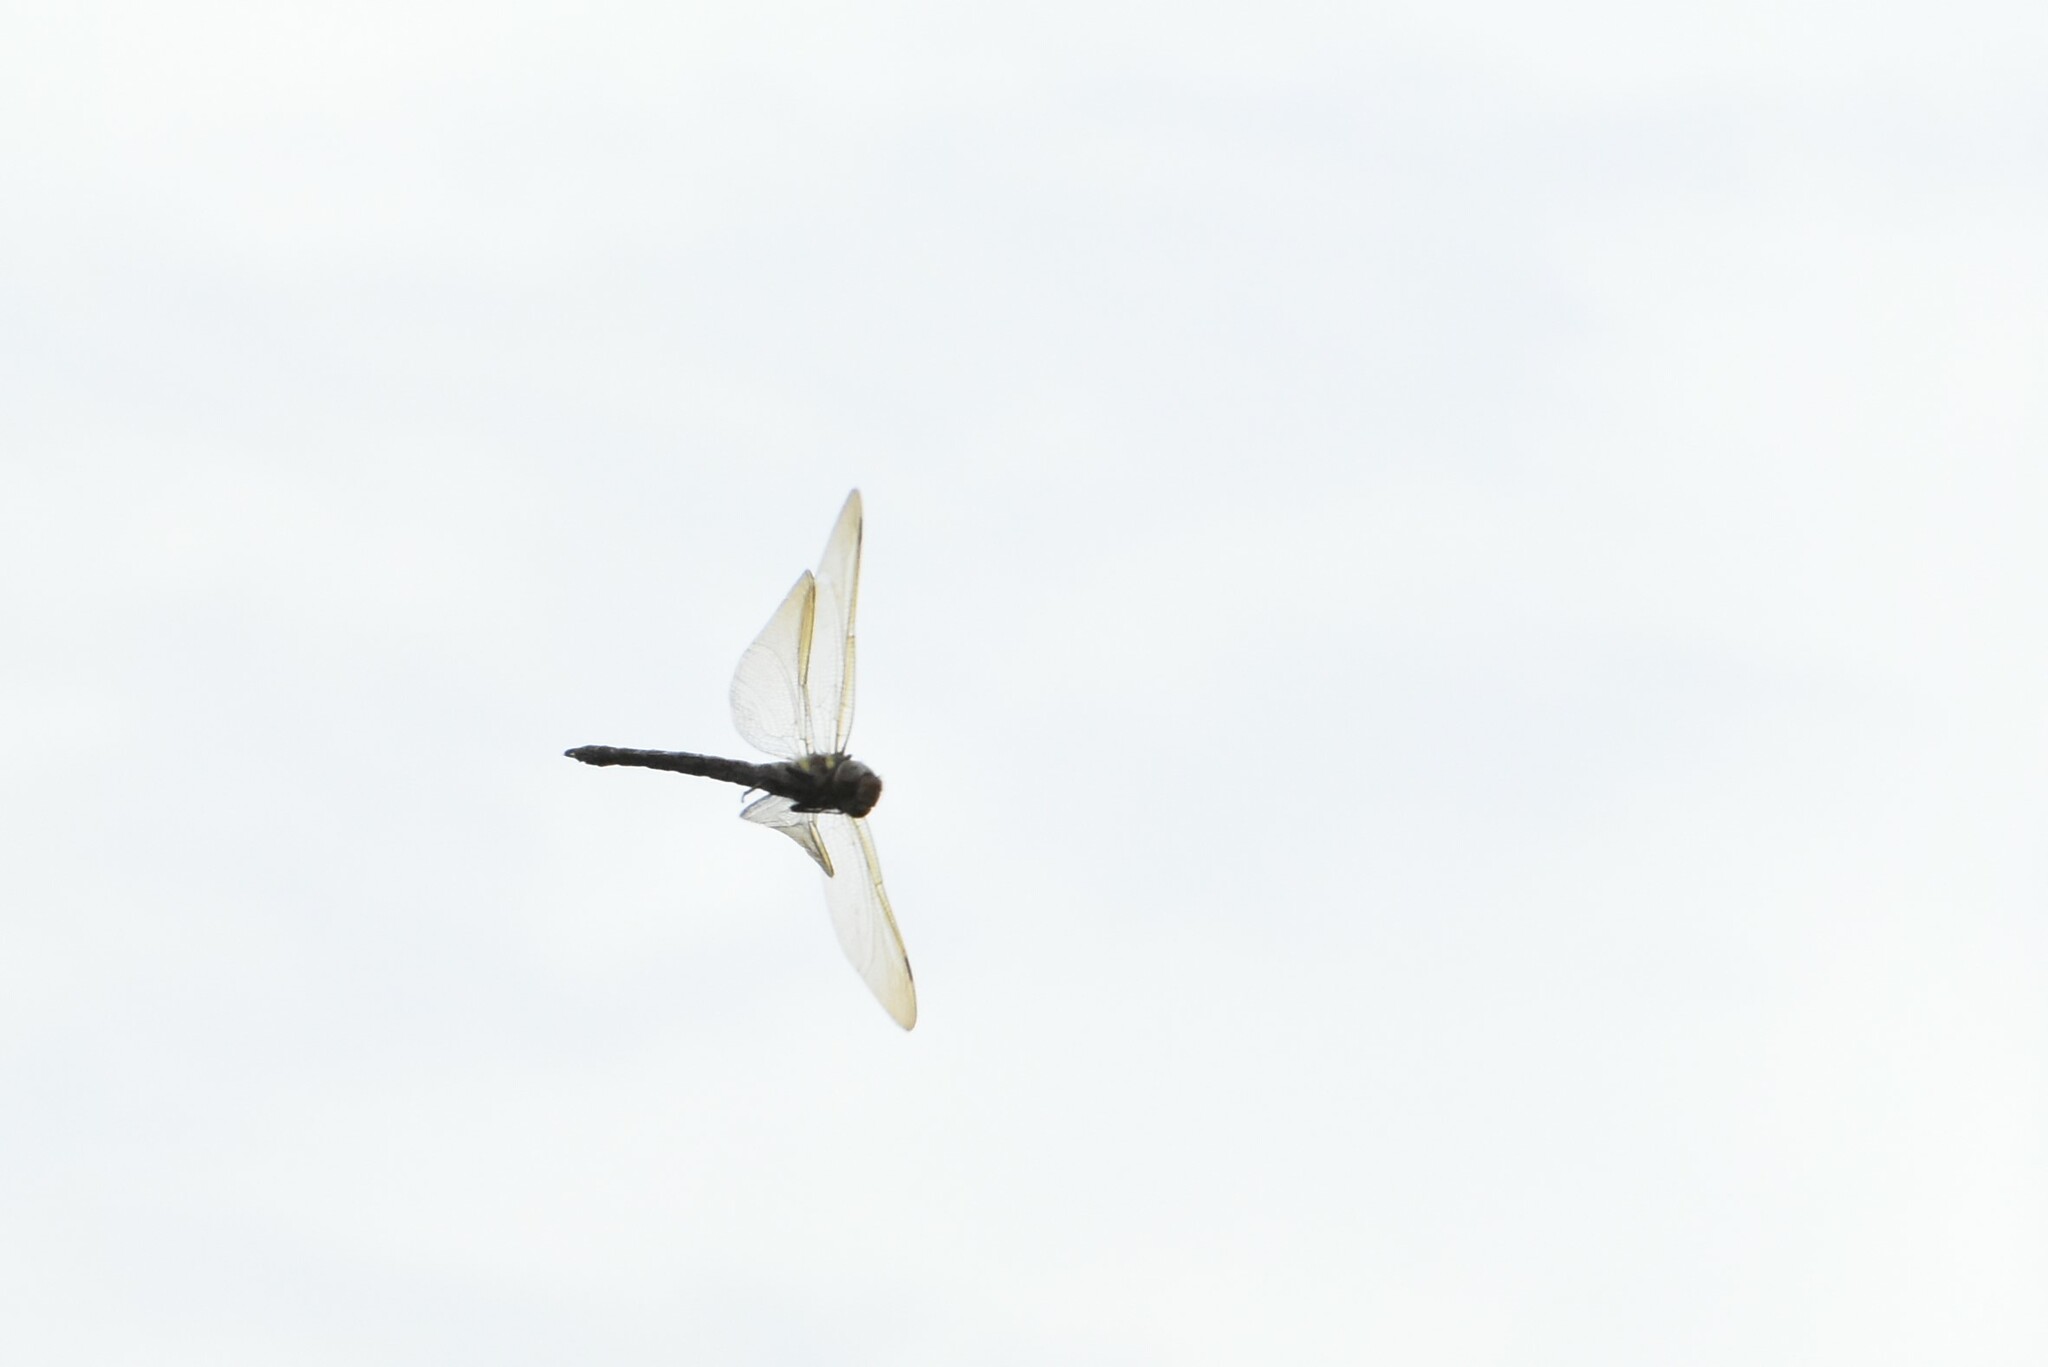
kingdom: Animalia
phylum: Arthropoda
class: Insecta
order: Odonata
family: Aeshnidae
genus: Aeshna
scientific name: Aeshna grandis
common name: Brown hawker
